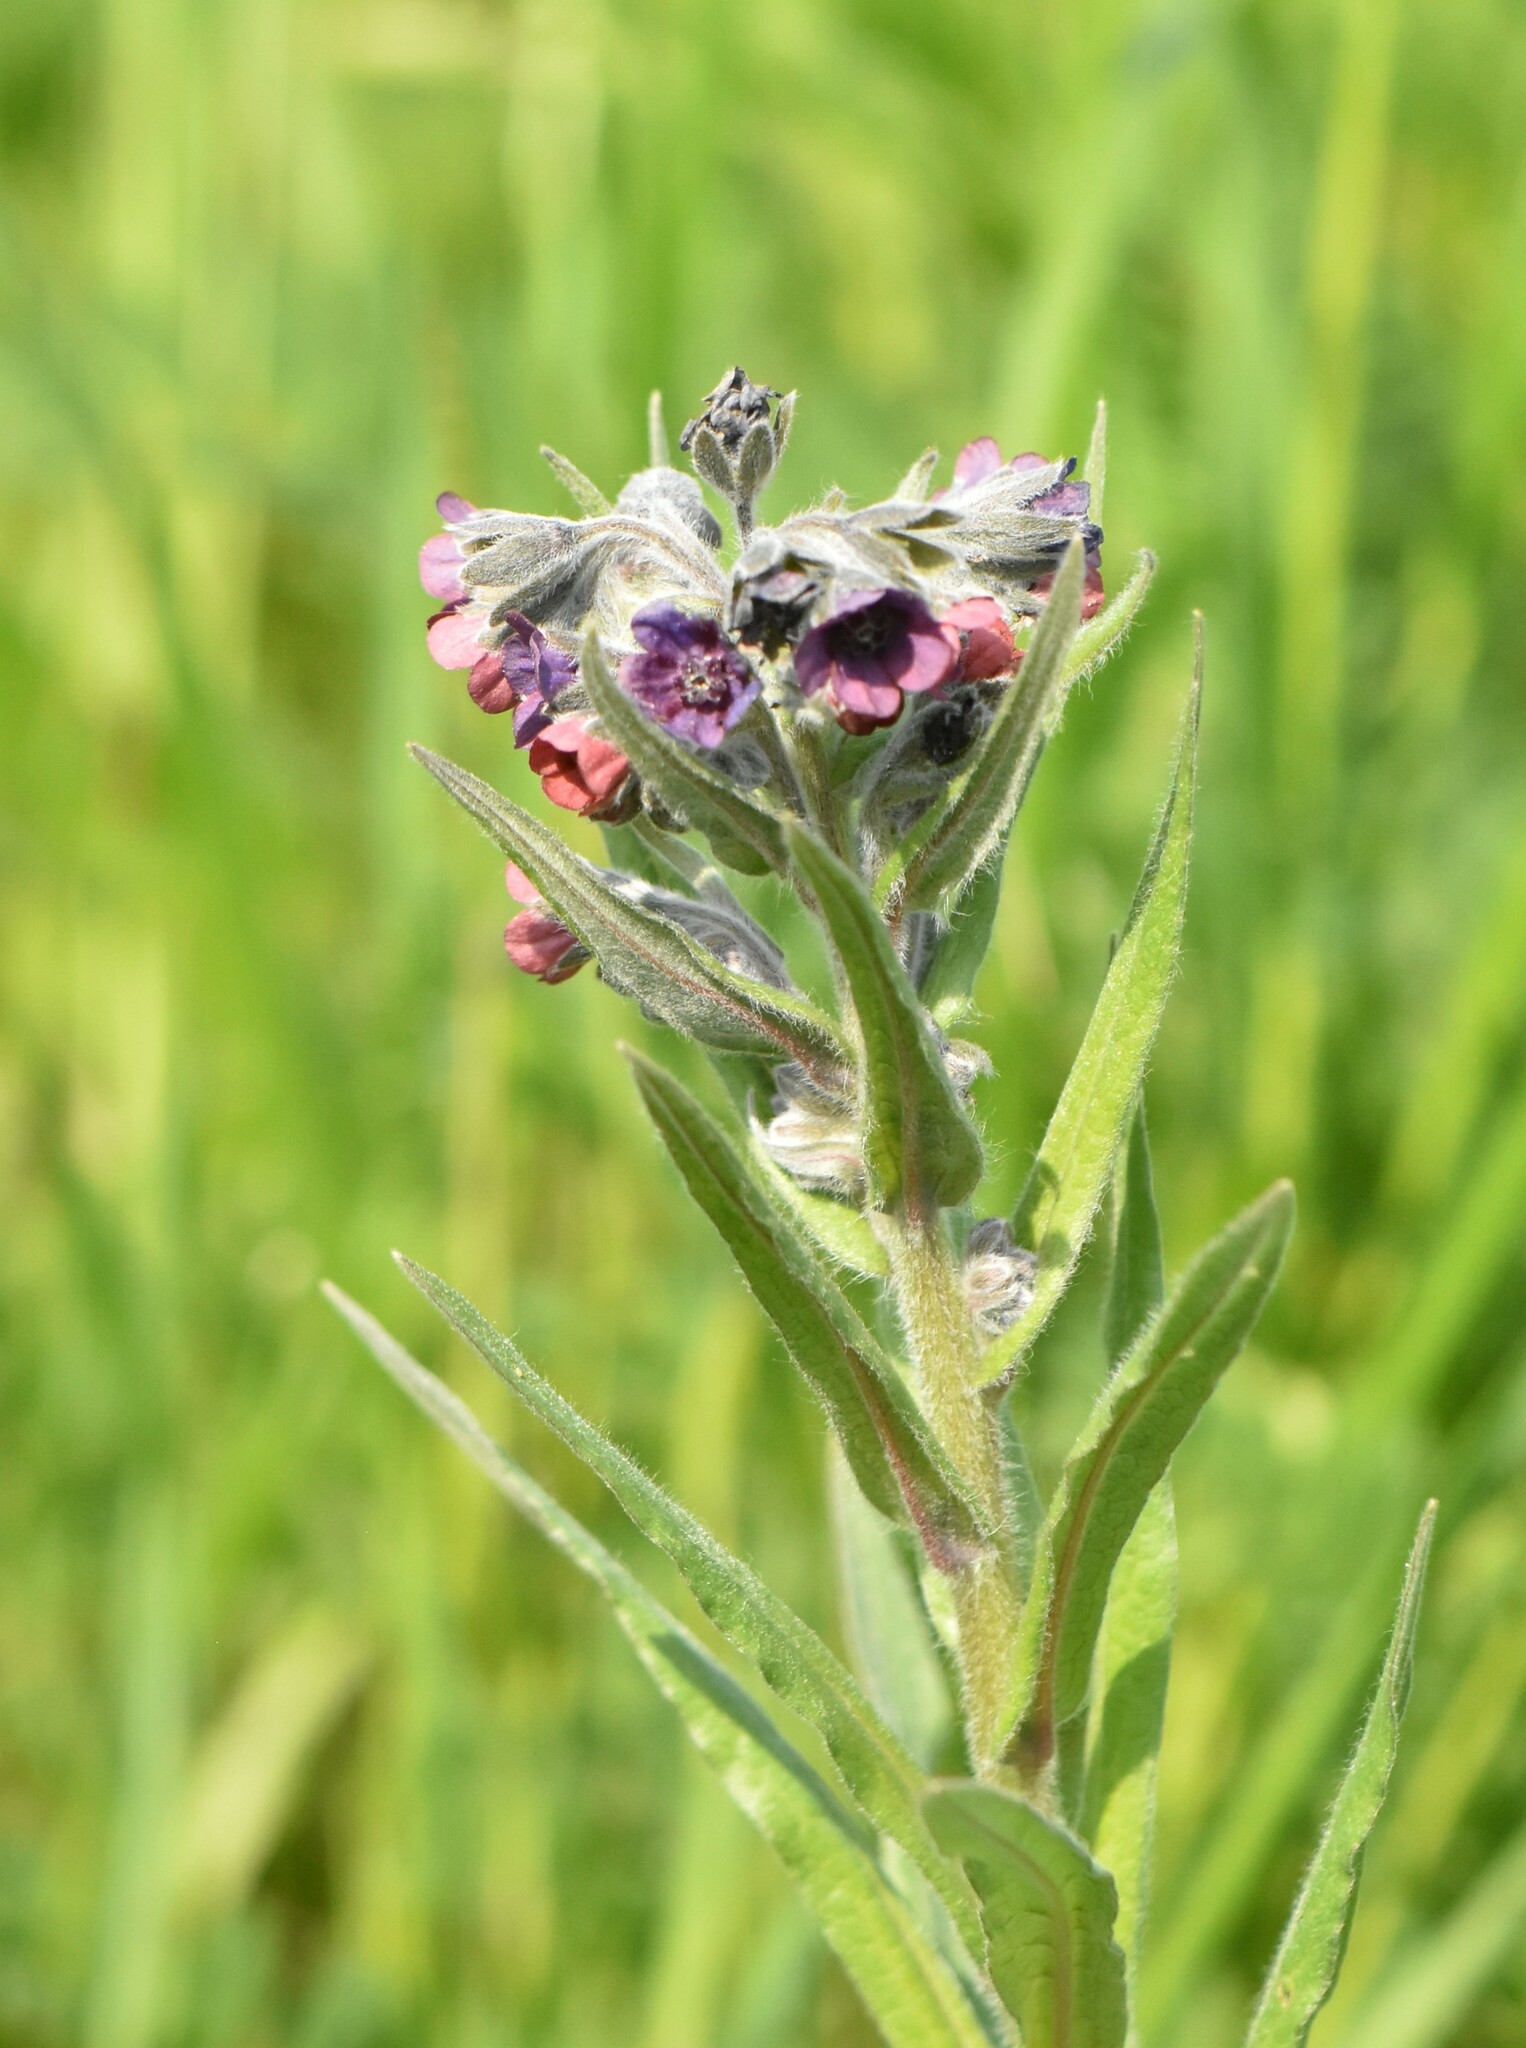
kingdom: Plantae
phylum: Tracheophyta
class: Magnoliopsida
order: Boraginales
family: Boraginaceae
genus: Cynoglossum
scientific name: Cynoglossum officinale
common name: Hound's-tongue
